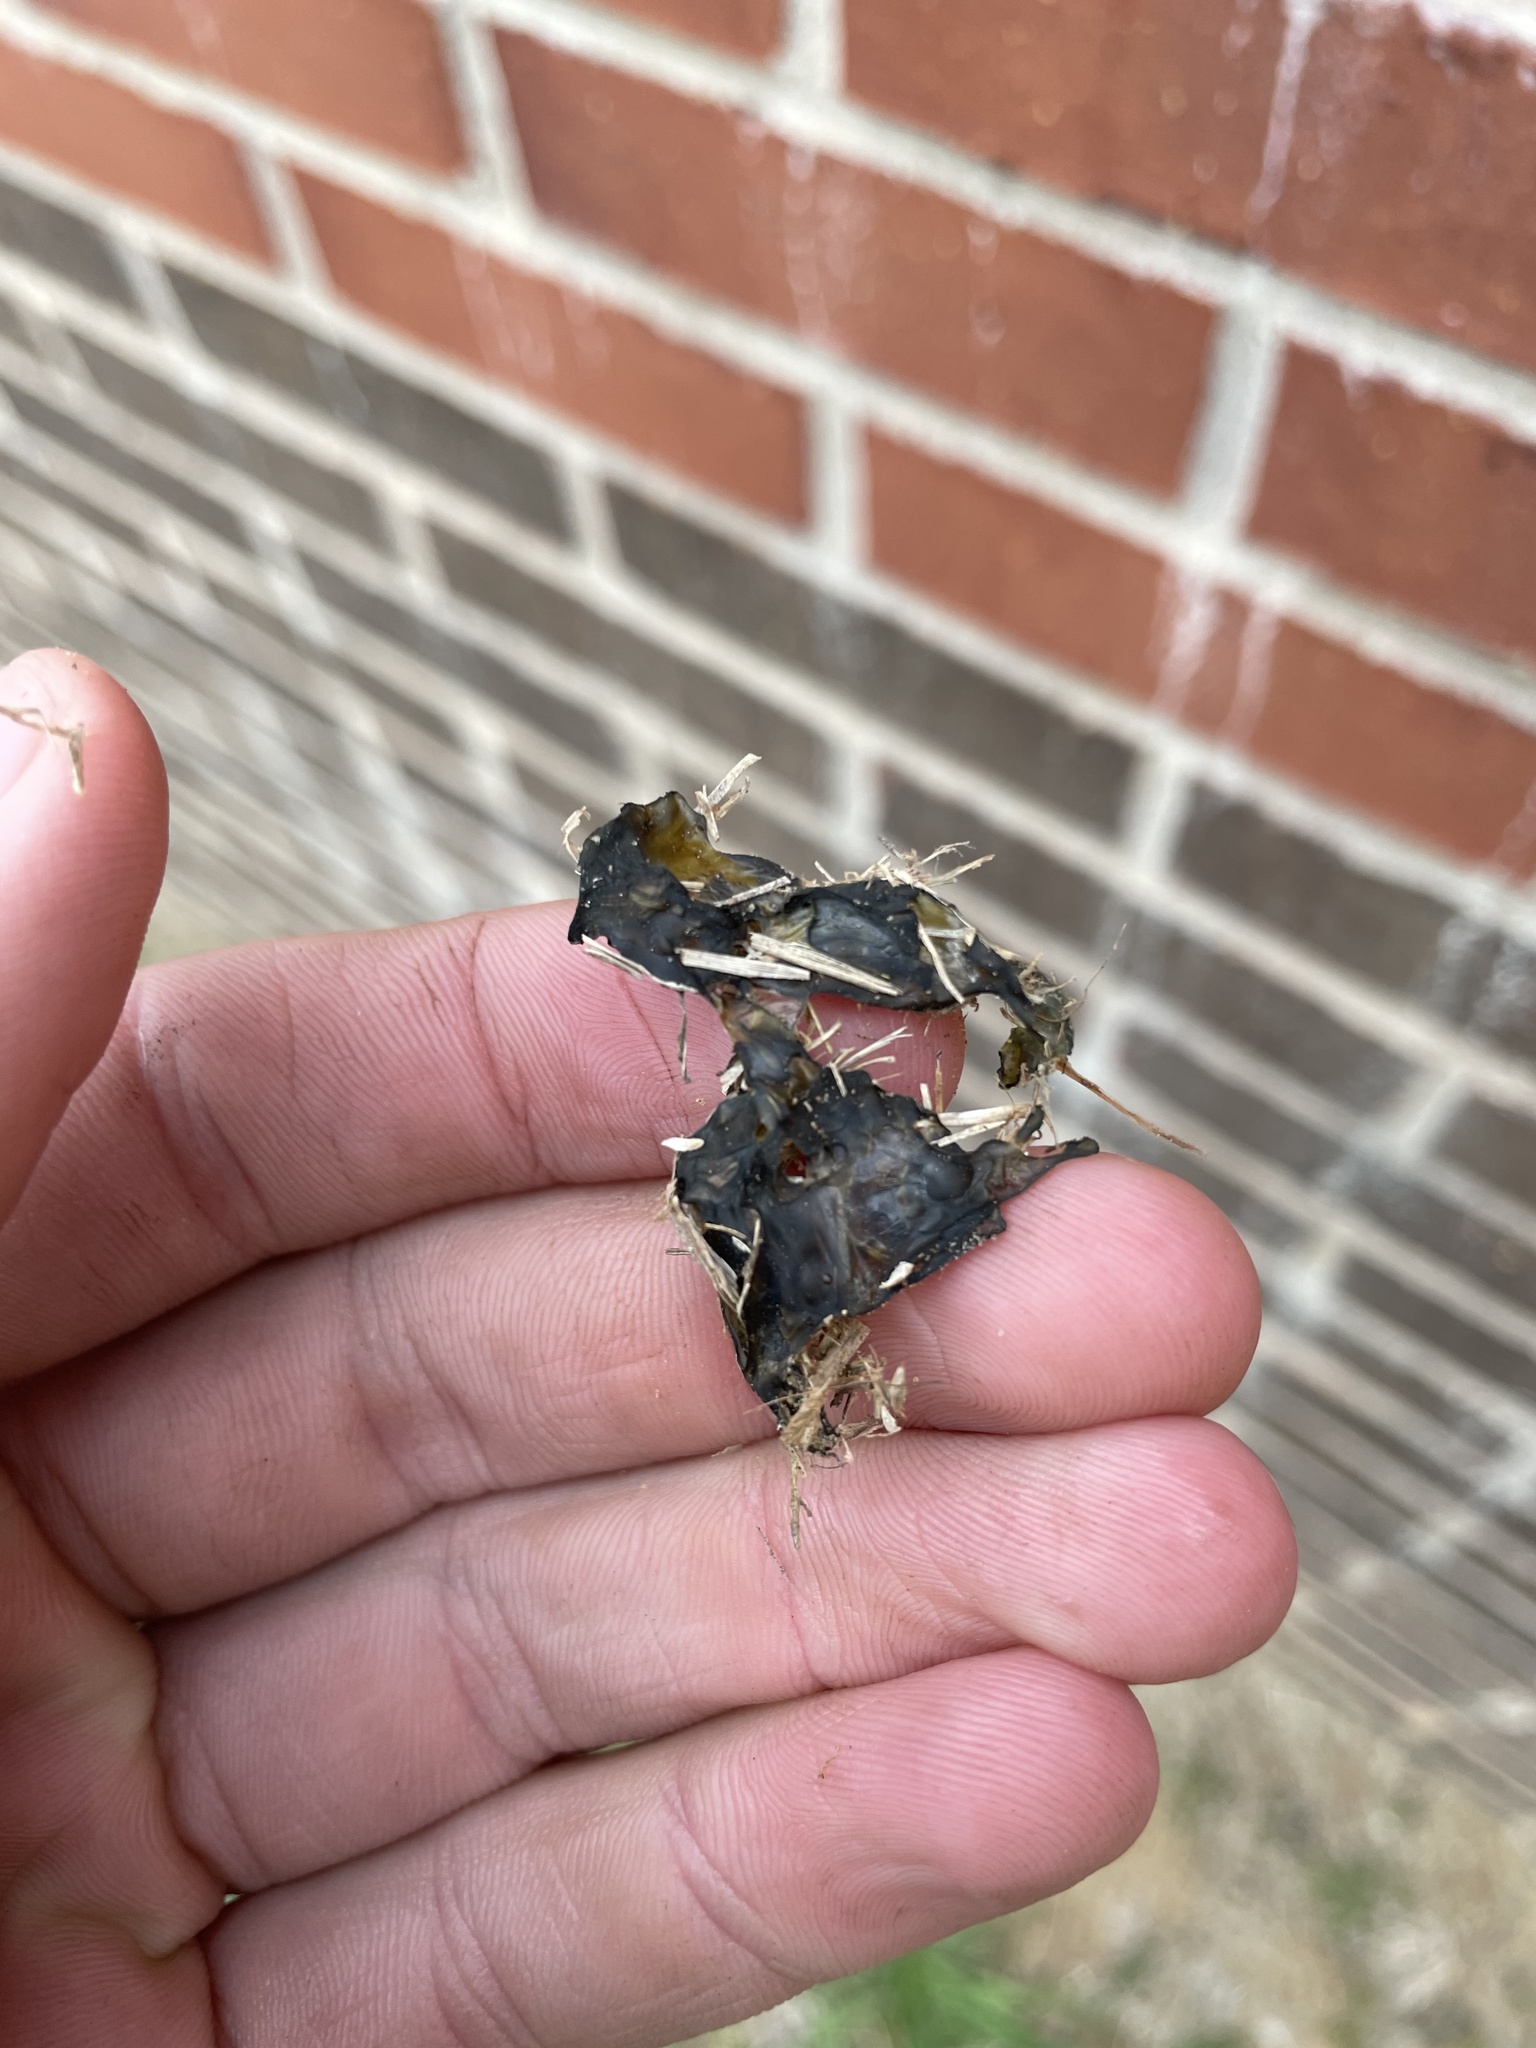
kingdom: Bacteria
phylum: Cyanobacteria
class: Cyanobacteriia
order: Cyanobacteriales
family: Nostocaceae
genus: Nostoc
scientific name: Nostoc commune
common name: Star jelly
